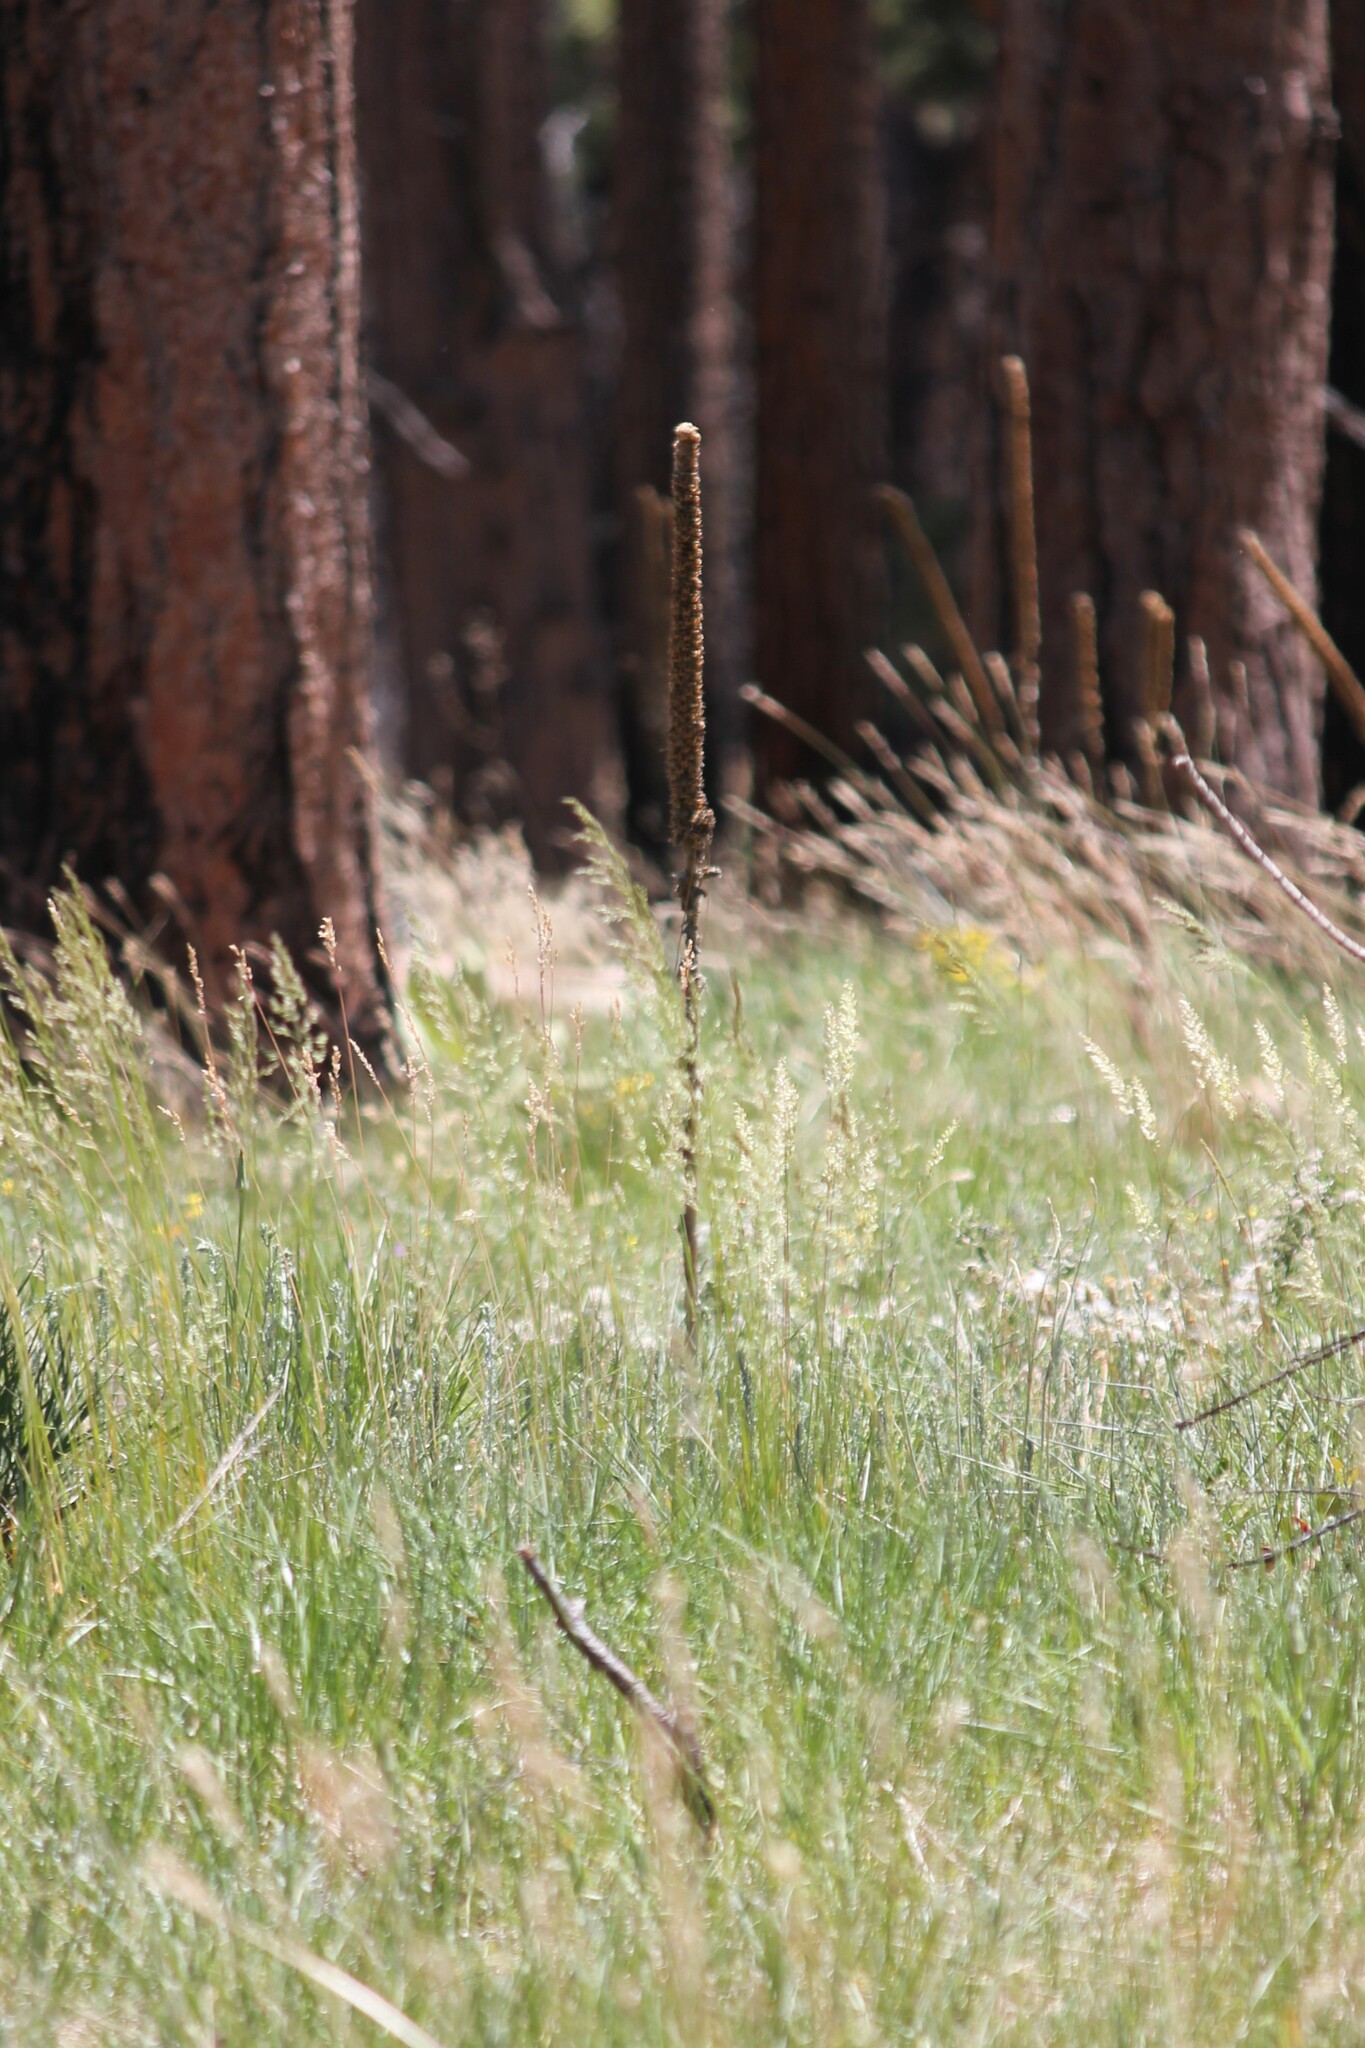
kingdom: Plantae
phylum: Tracheophyta
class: Magnoliopsida
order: Lamiales
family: Scrophulariaceae
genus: Verbascum
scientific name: Verbascum thapsus
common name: Common mullein
